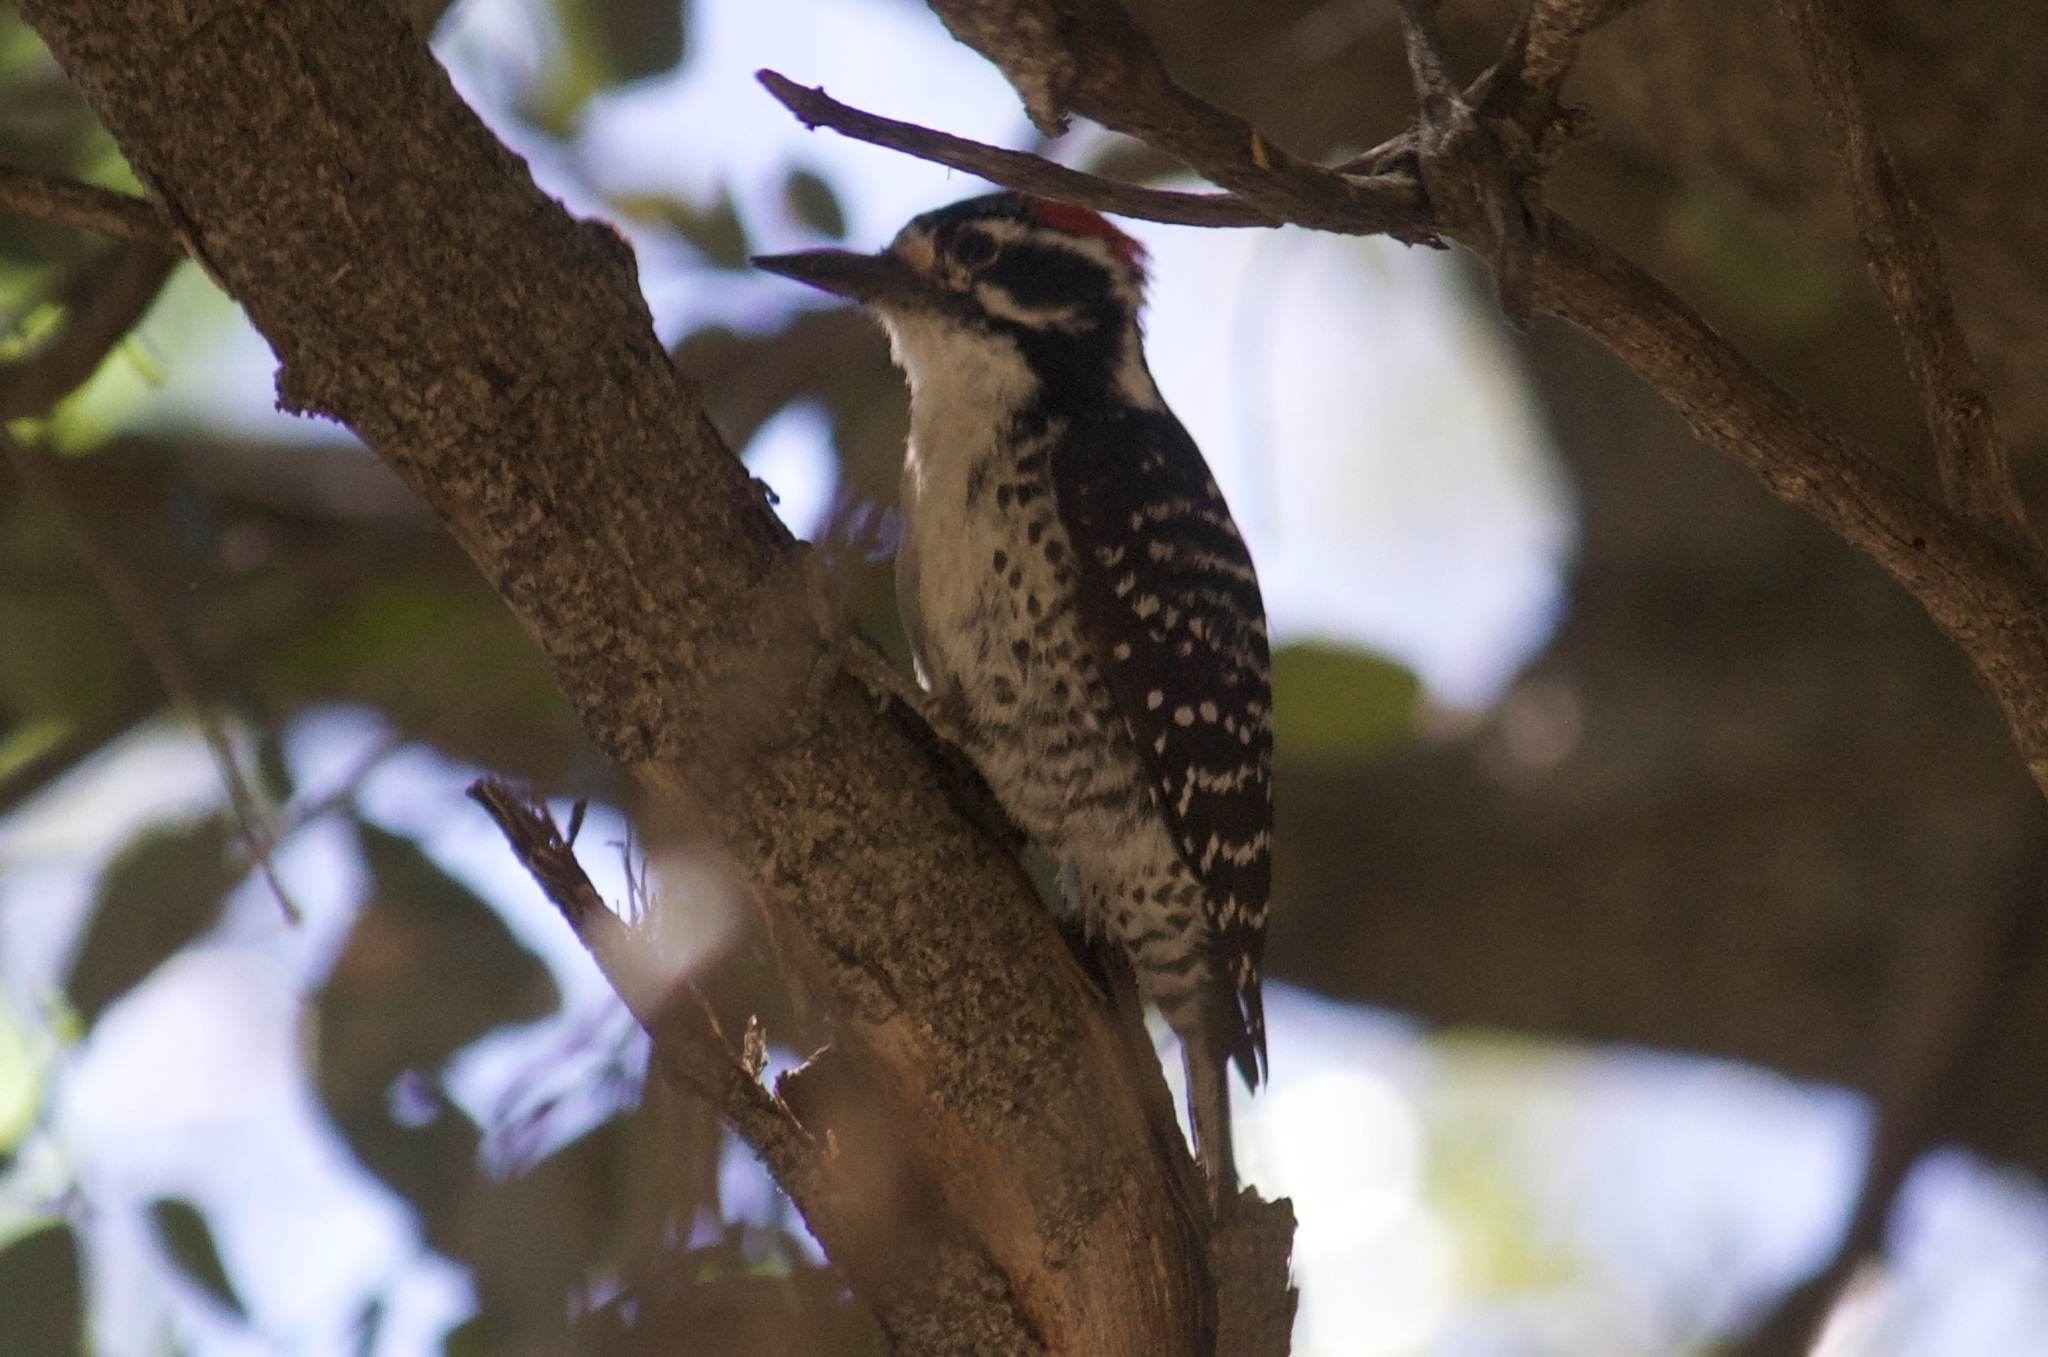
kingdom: Animalia
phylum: Chordata
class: Aves
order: Piciformes
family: Picidae
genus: Dryobates
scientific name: Dryobates nuttallii
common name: Nuttall's woodpecker
